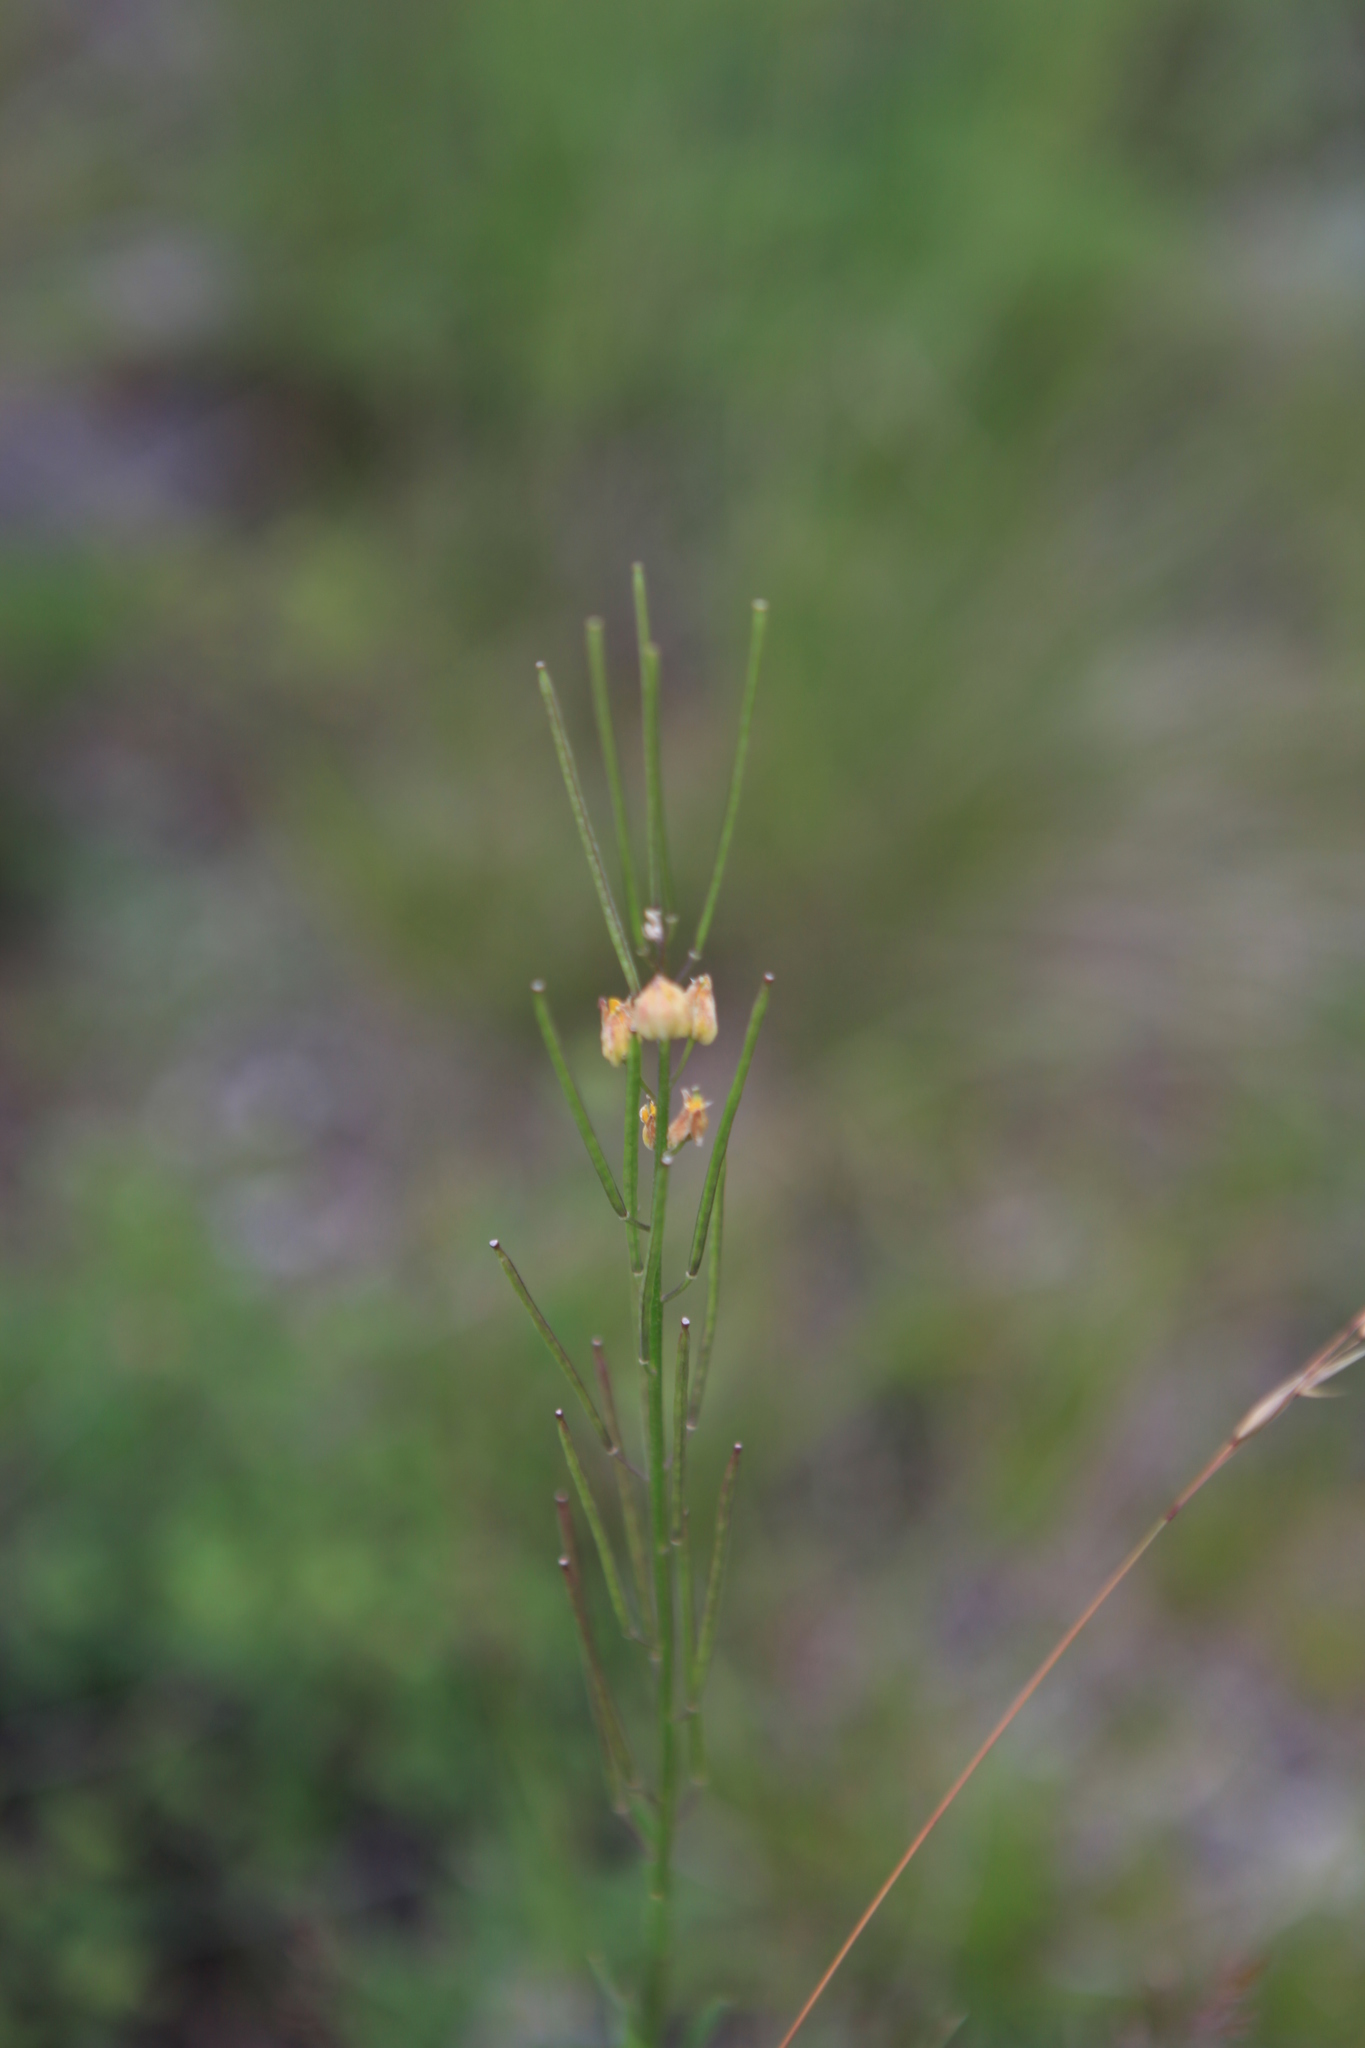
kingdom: Plantae
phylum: Tracheophyta
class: Magnoliopsida
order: Brassicales
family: Brassicaceae
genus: Erysimum
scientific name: Erysimum hieraciifolium
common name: European wallflower
